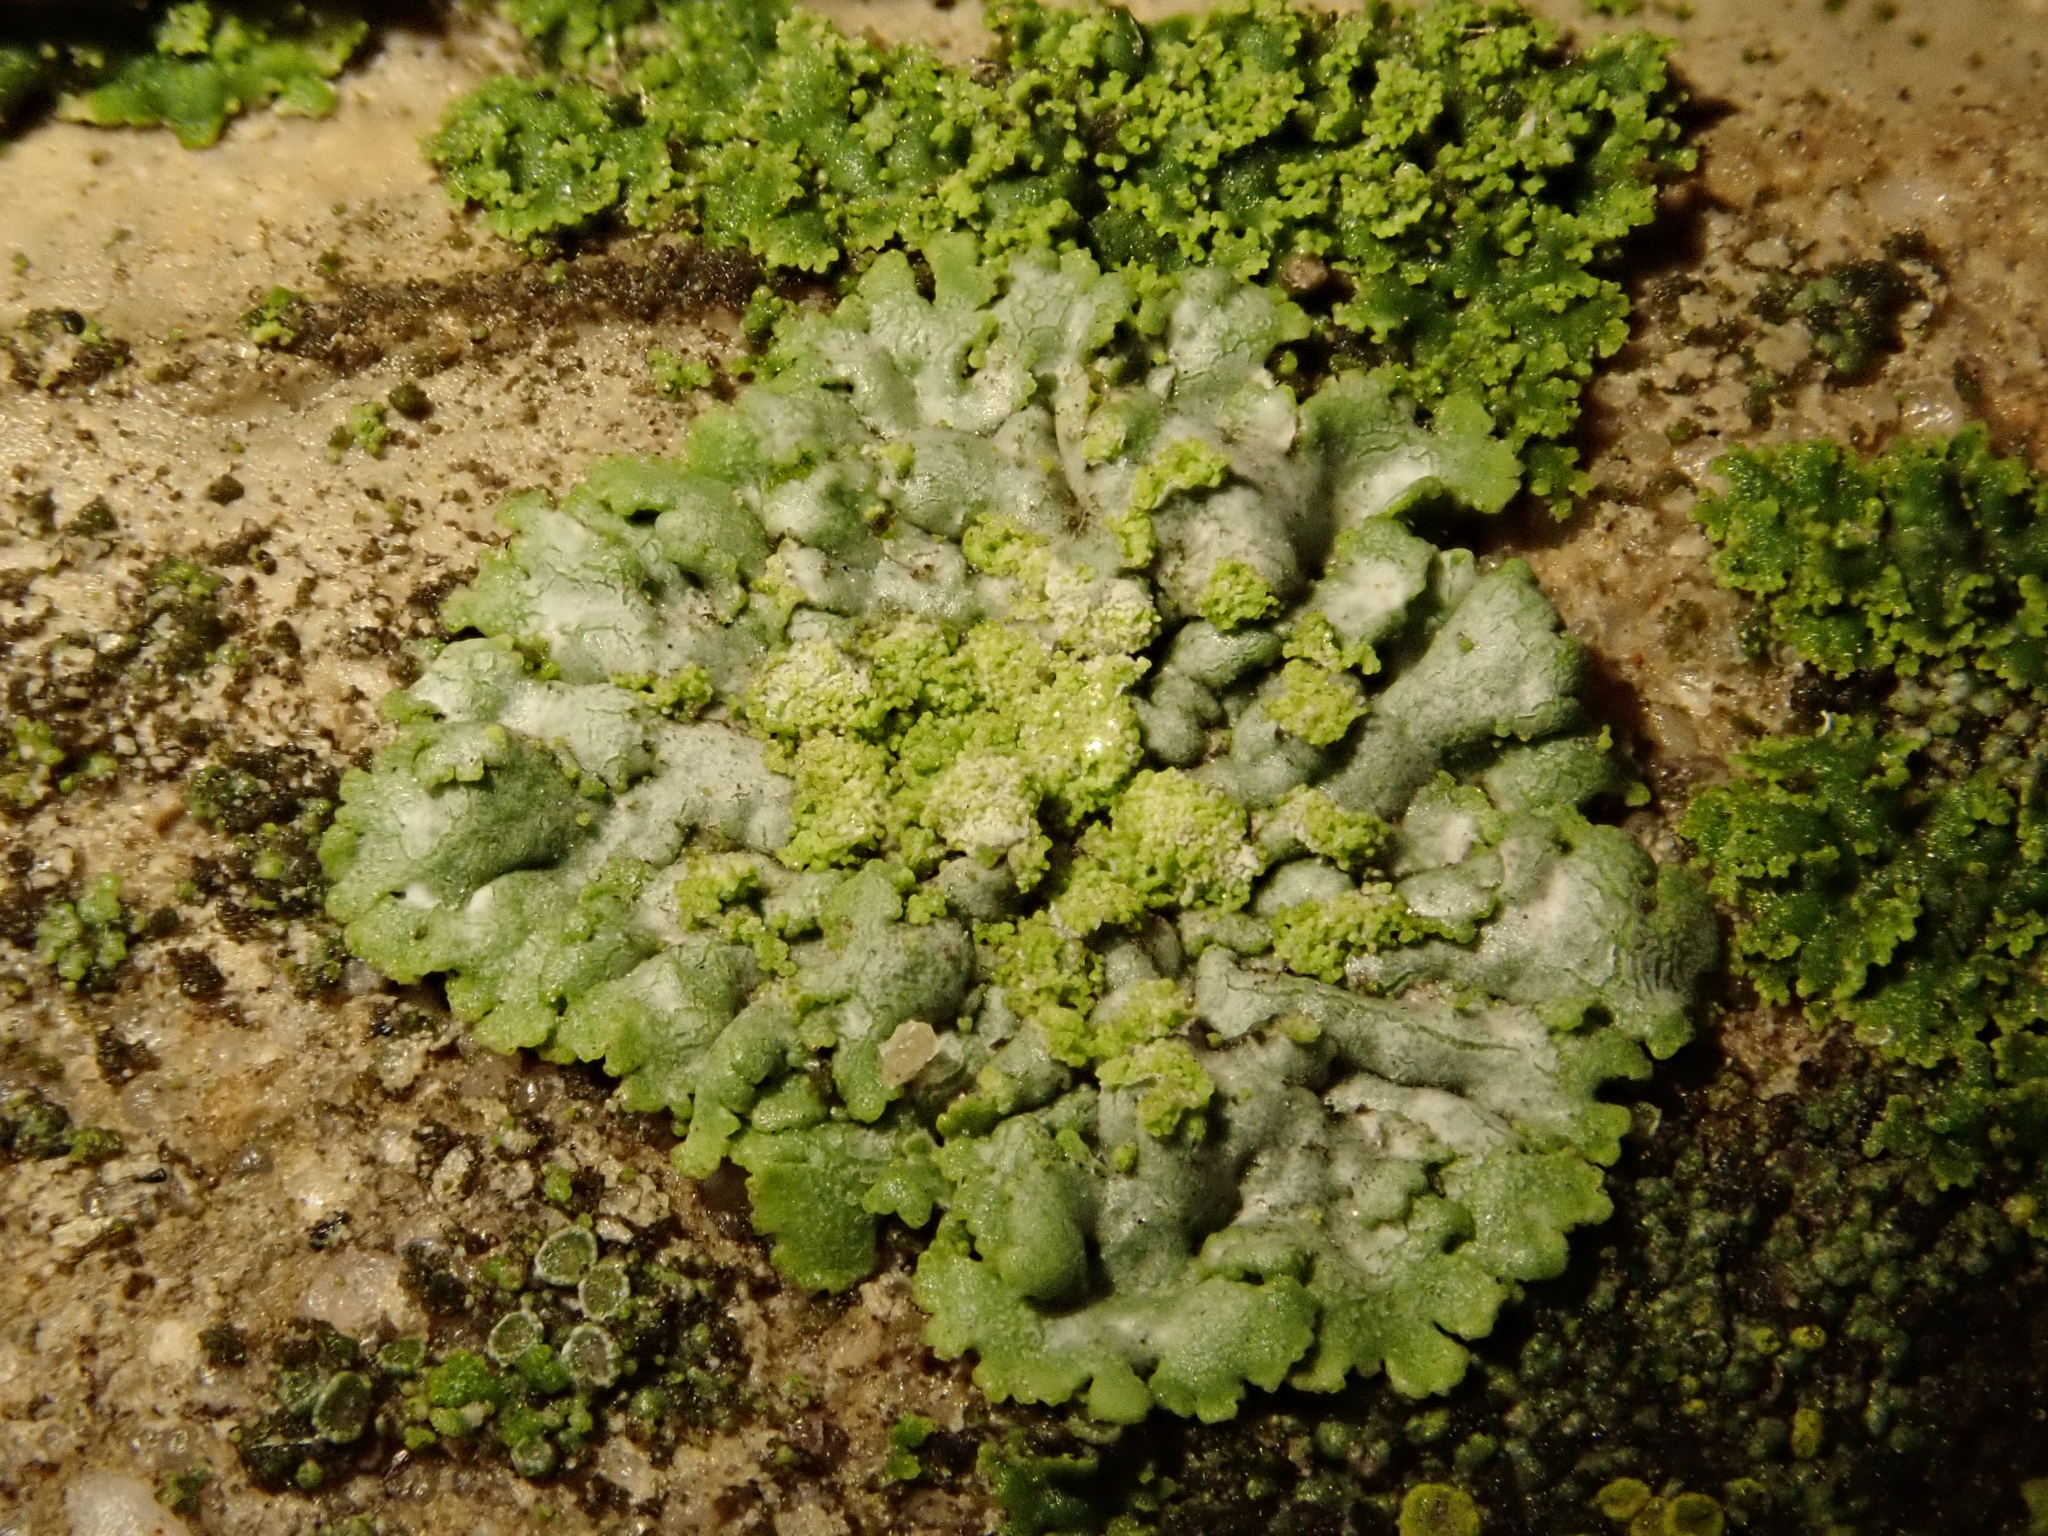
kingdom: Fungi
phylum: Ascomycota
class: Lecanoromycetes
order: Caliciales
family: Physciaceae
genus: Phaeophyscia
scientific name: Phaeophyscia orbicularis
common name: Mealy shadow lichen
